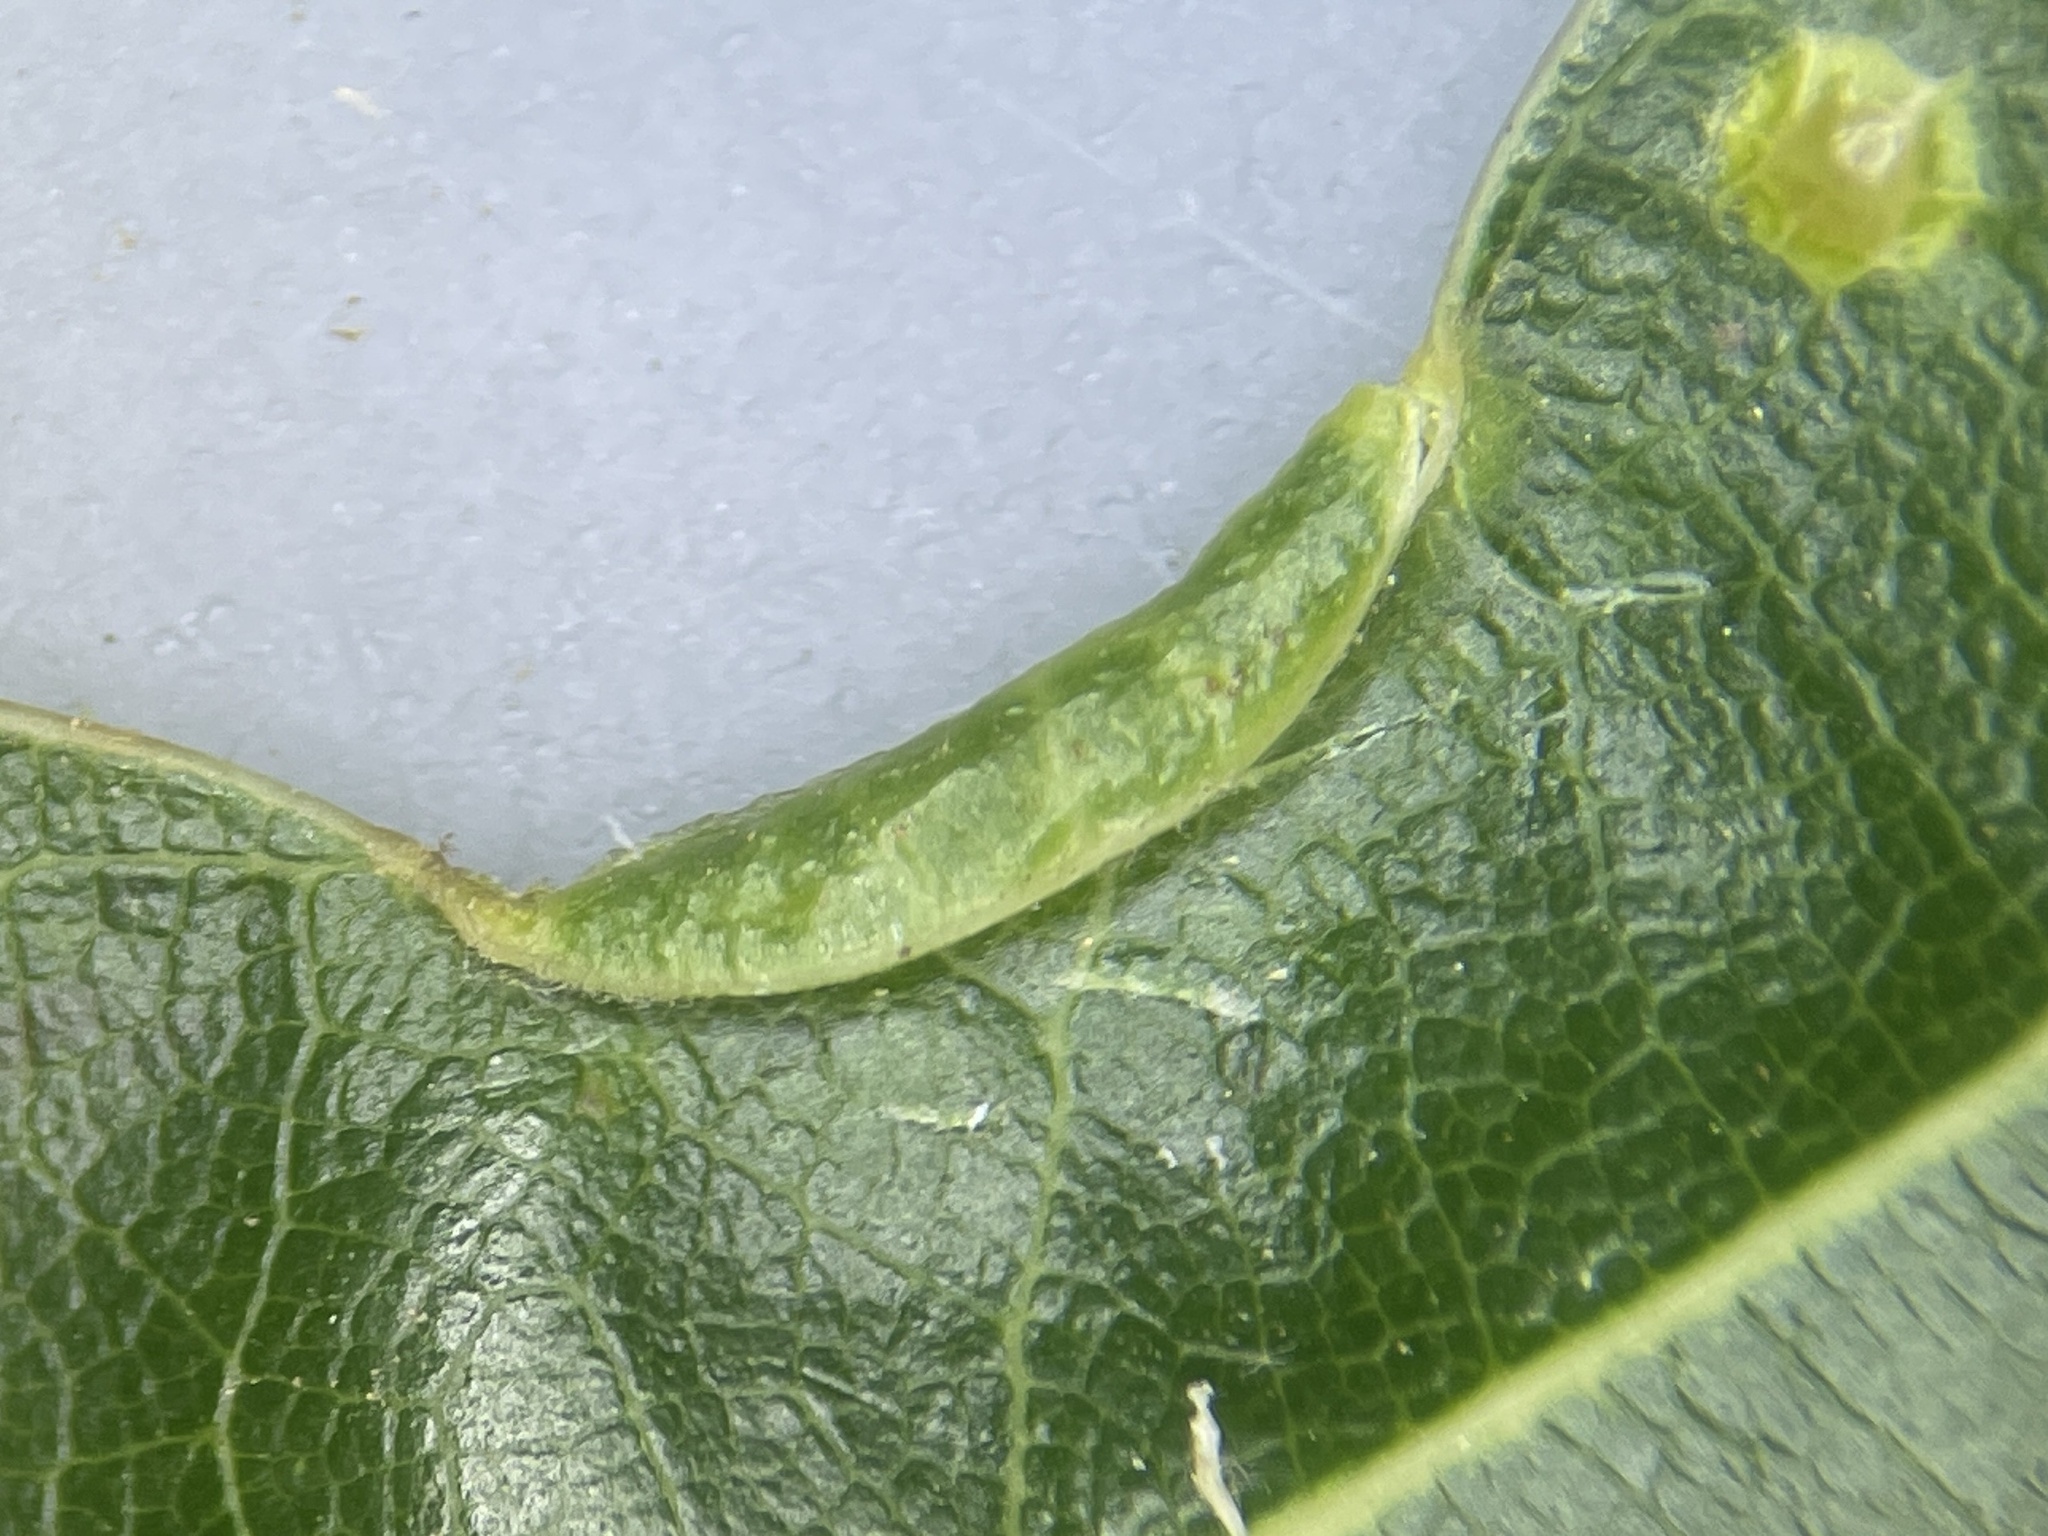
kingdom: Animalia
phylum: Arthropoda
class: Insecta
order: Diptera
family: Cecidomyiidae
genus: Macrodiplosis
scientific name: Macrodiplosis erubescens
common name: Marginal leaf fold gall midge
